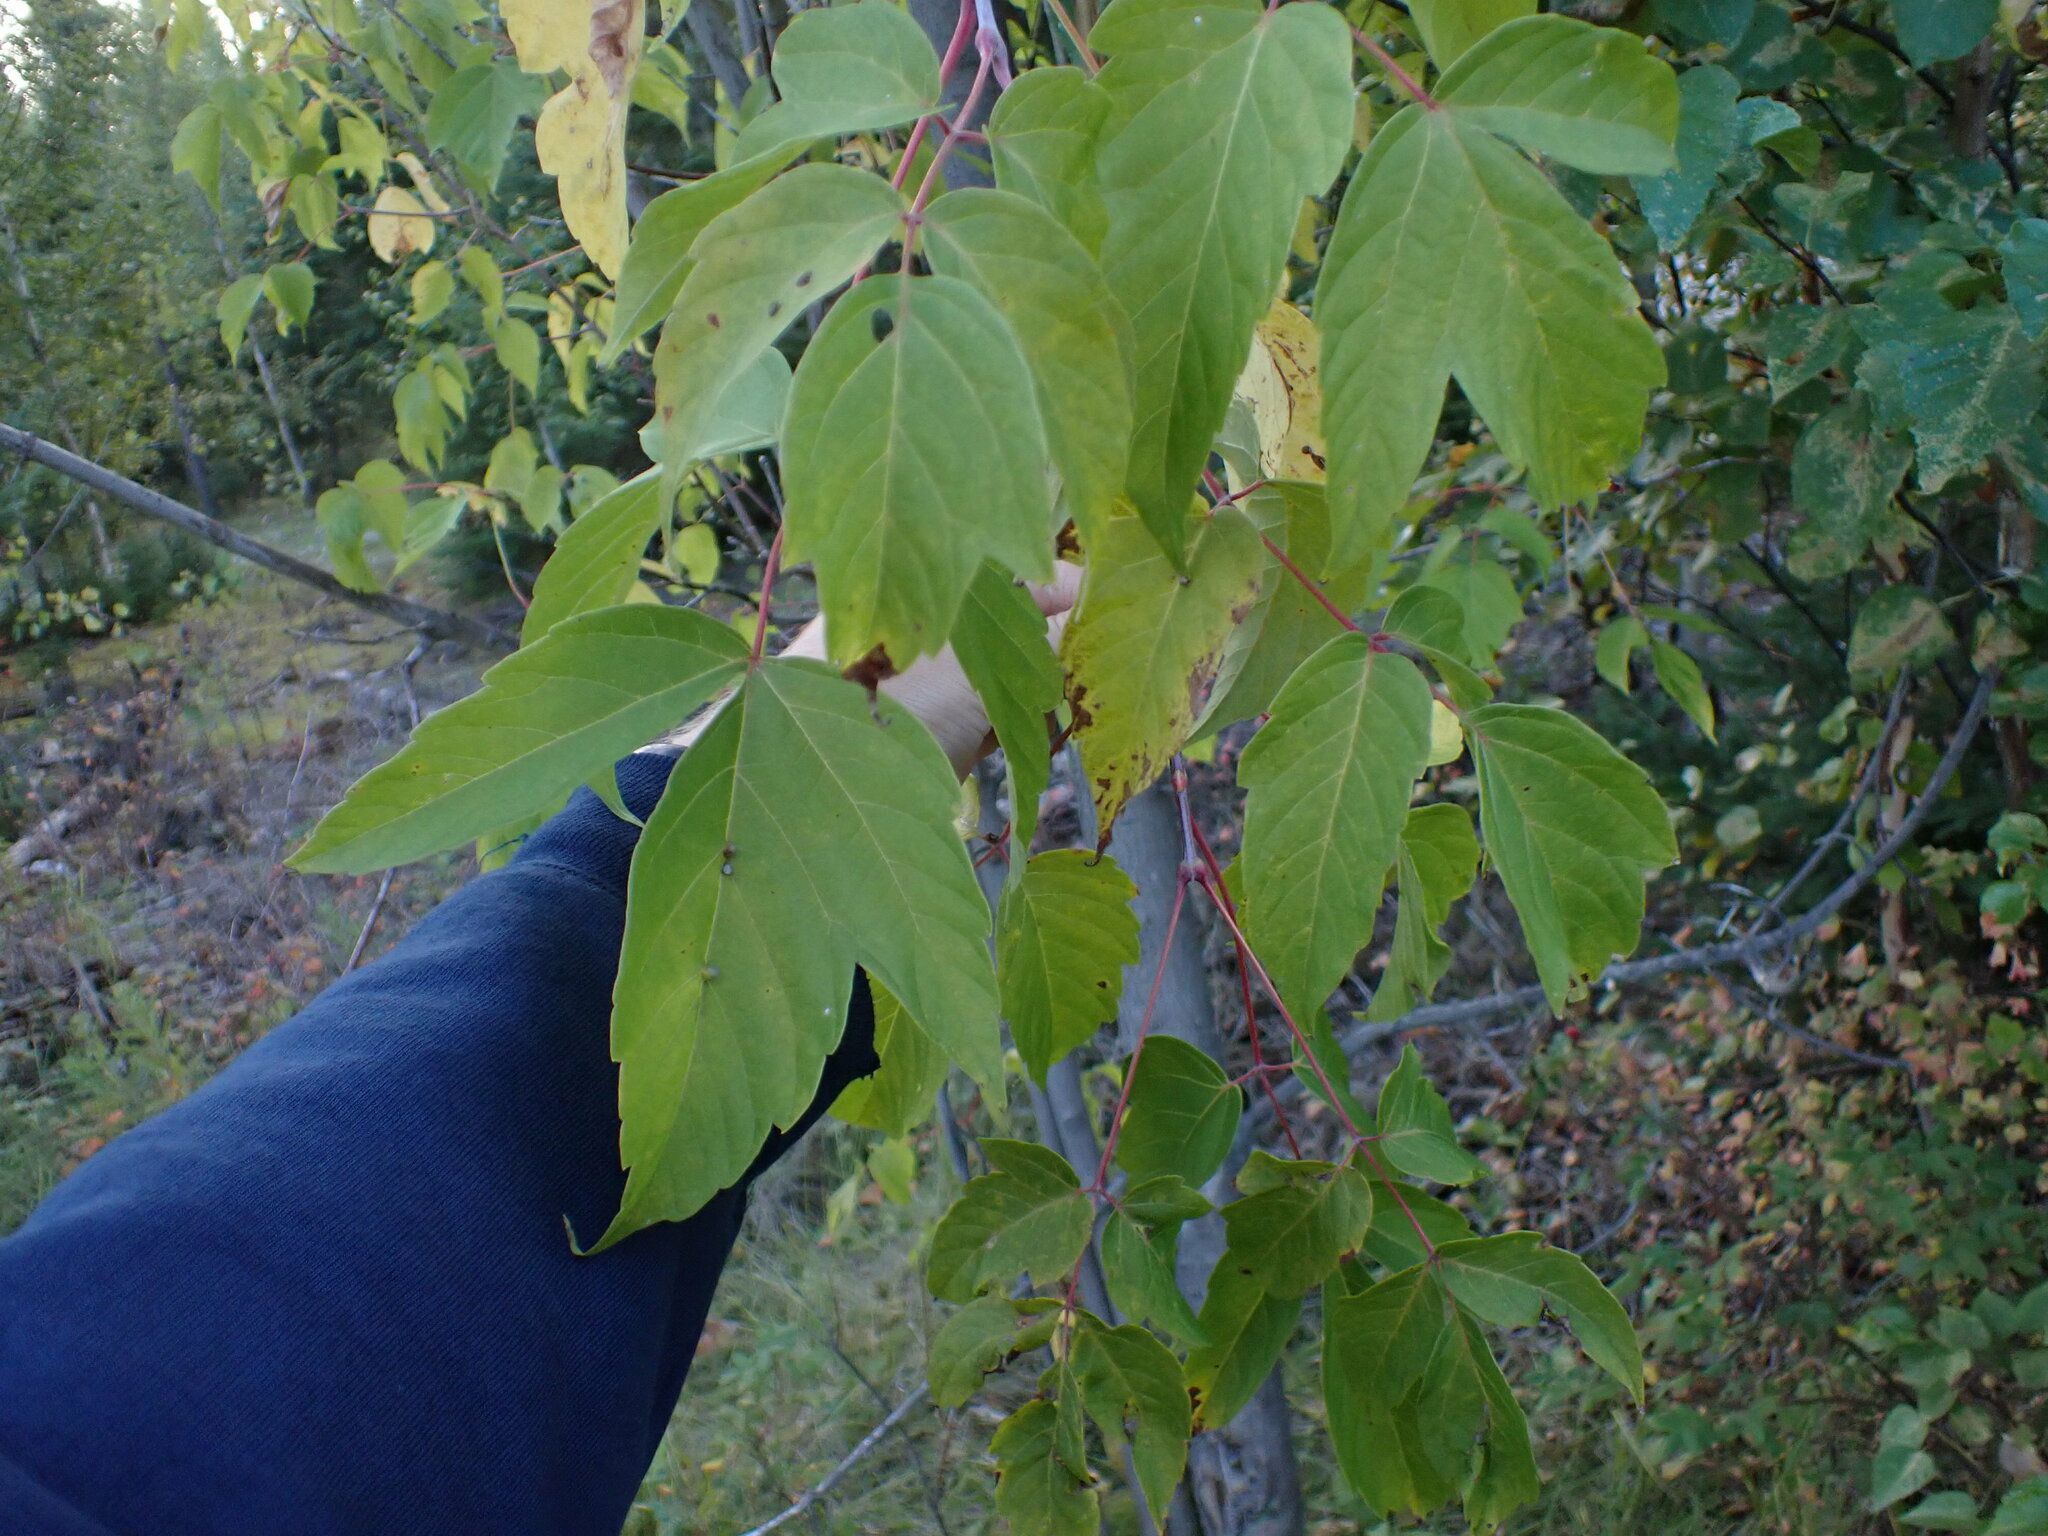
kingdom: Plantae
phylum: Tracheophyta
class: Magnoliopsida
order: Sapindales
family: Sapindaceae
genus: Acer
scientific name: Acer negundo
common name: Ashleaf maple
